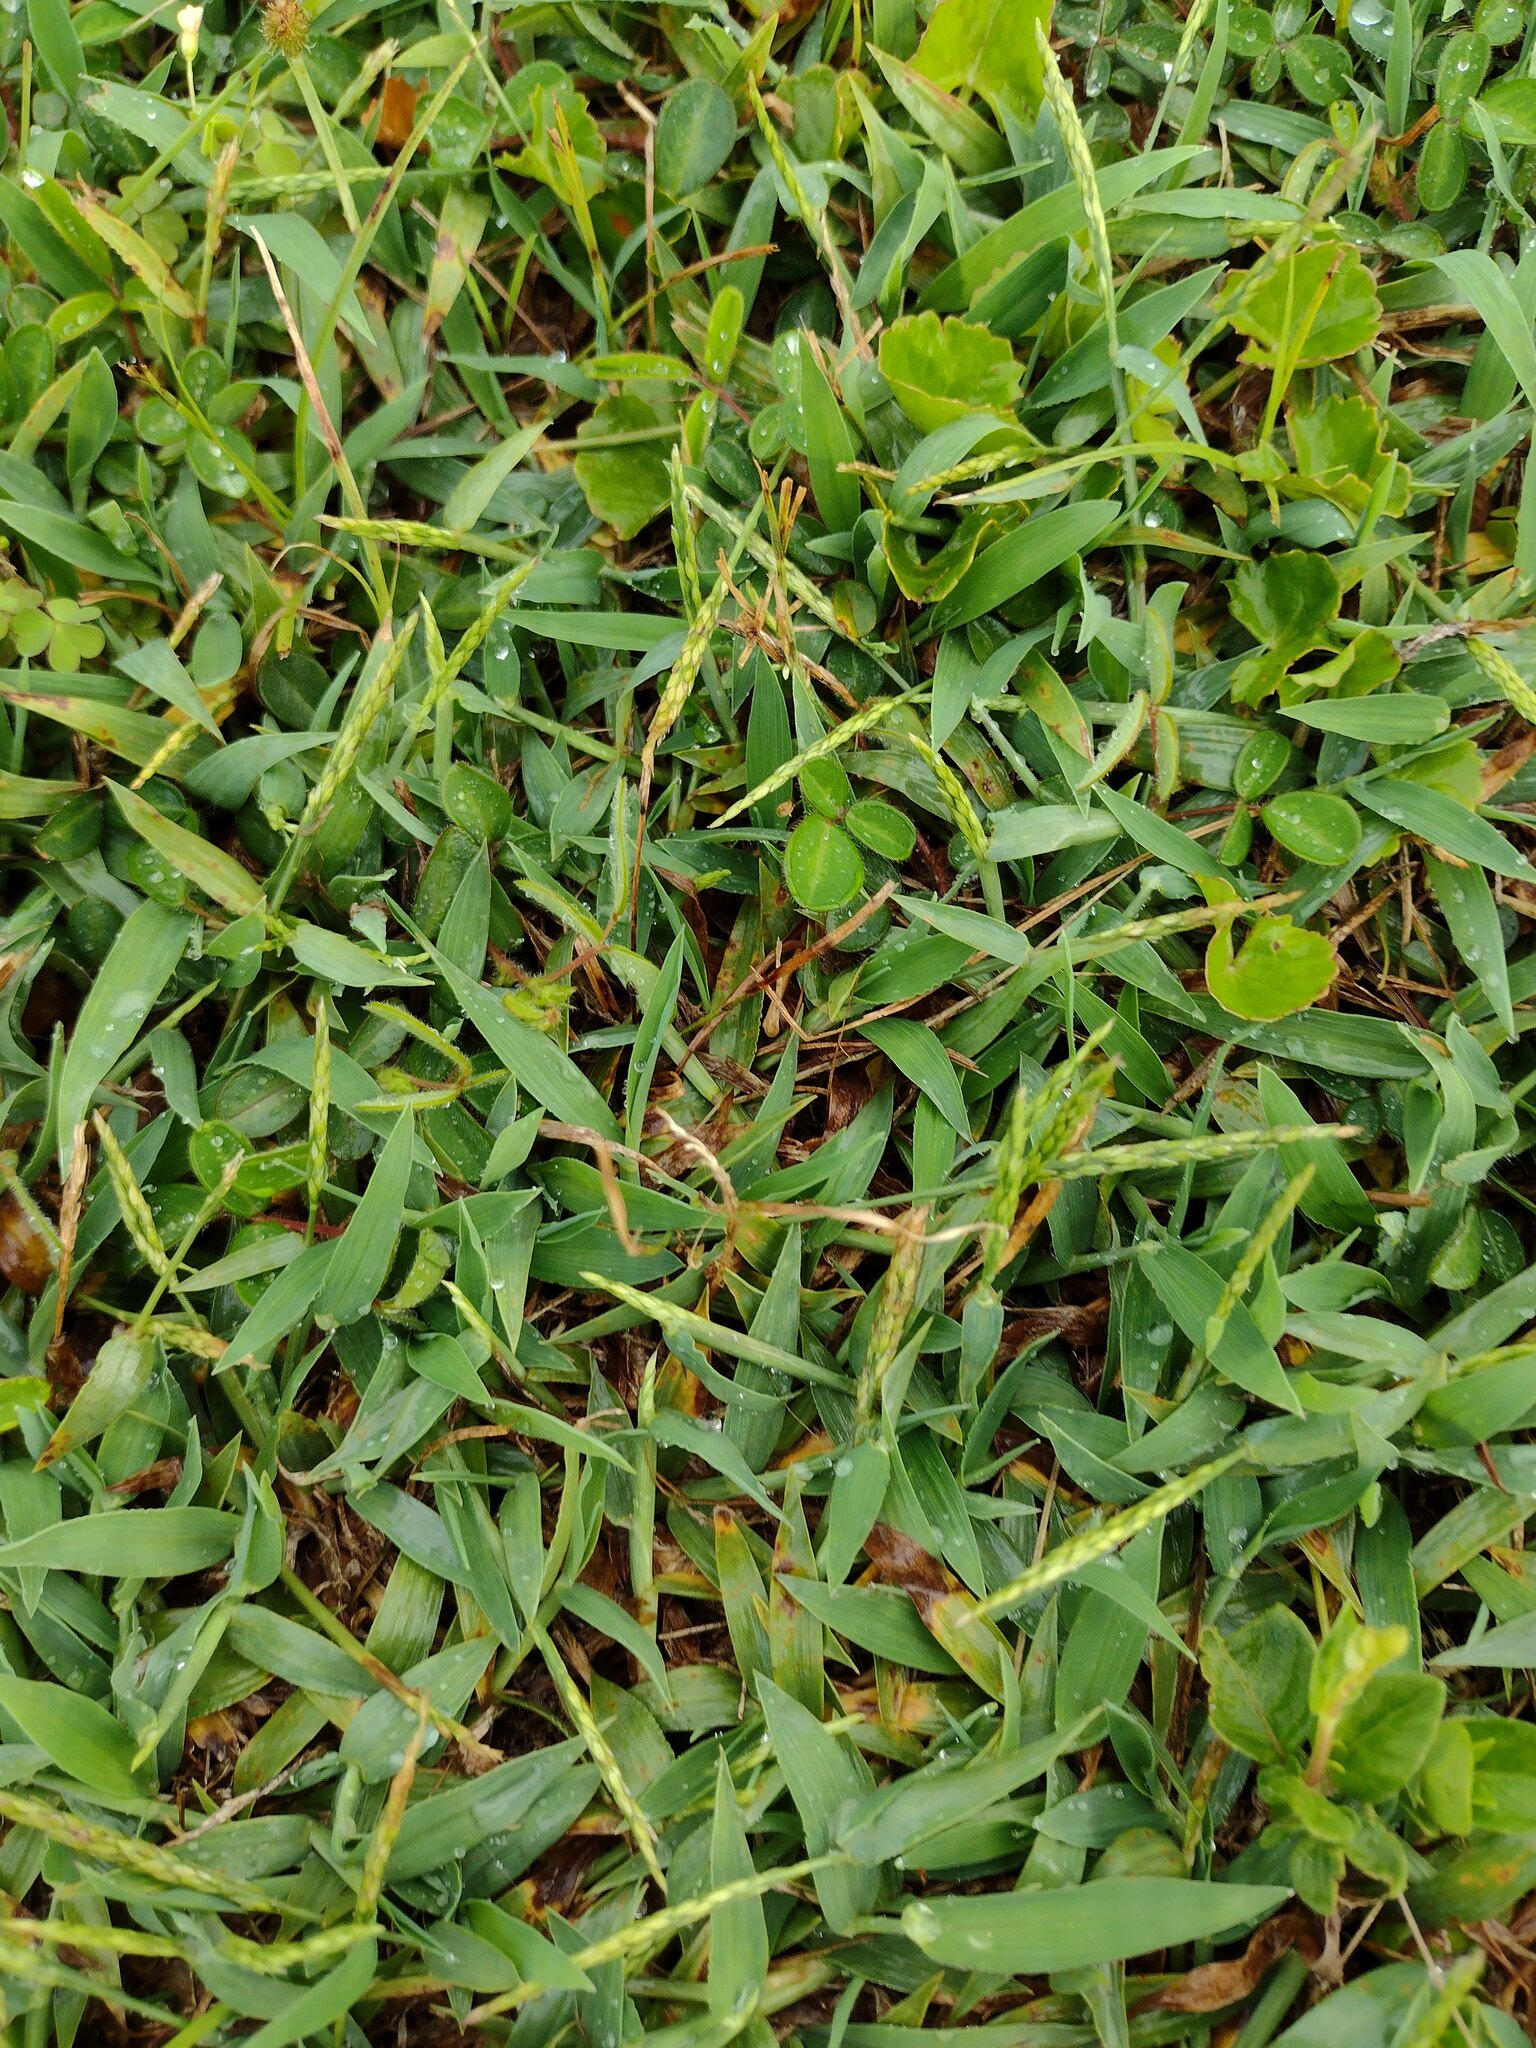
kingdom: Plantae
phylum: Tracheophyta
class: Liliopsida
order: Poales
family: Poaceae
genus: Digitaria
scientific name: Digitaria ciliaris
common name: Tropical finger-grass
